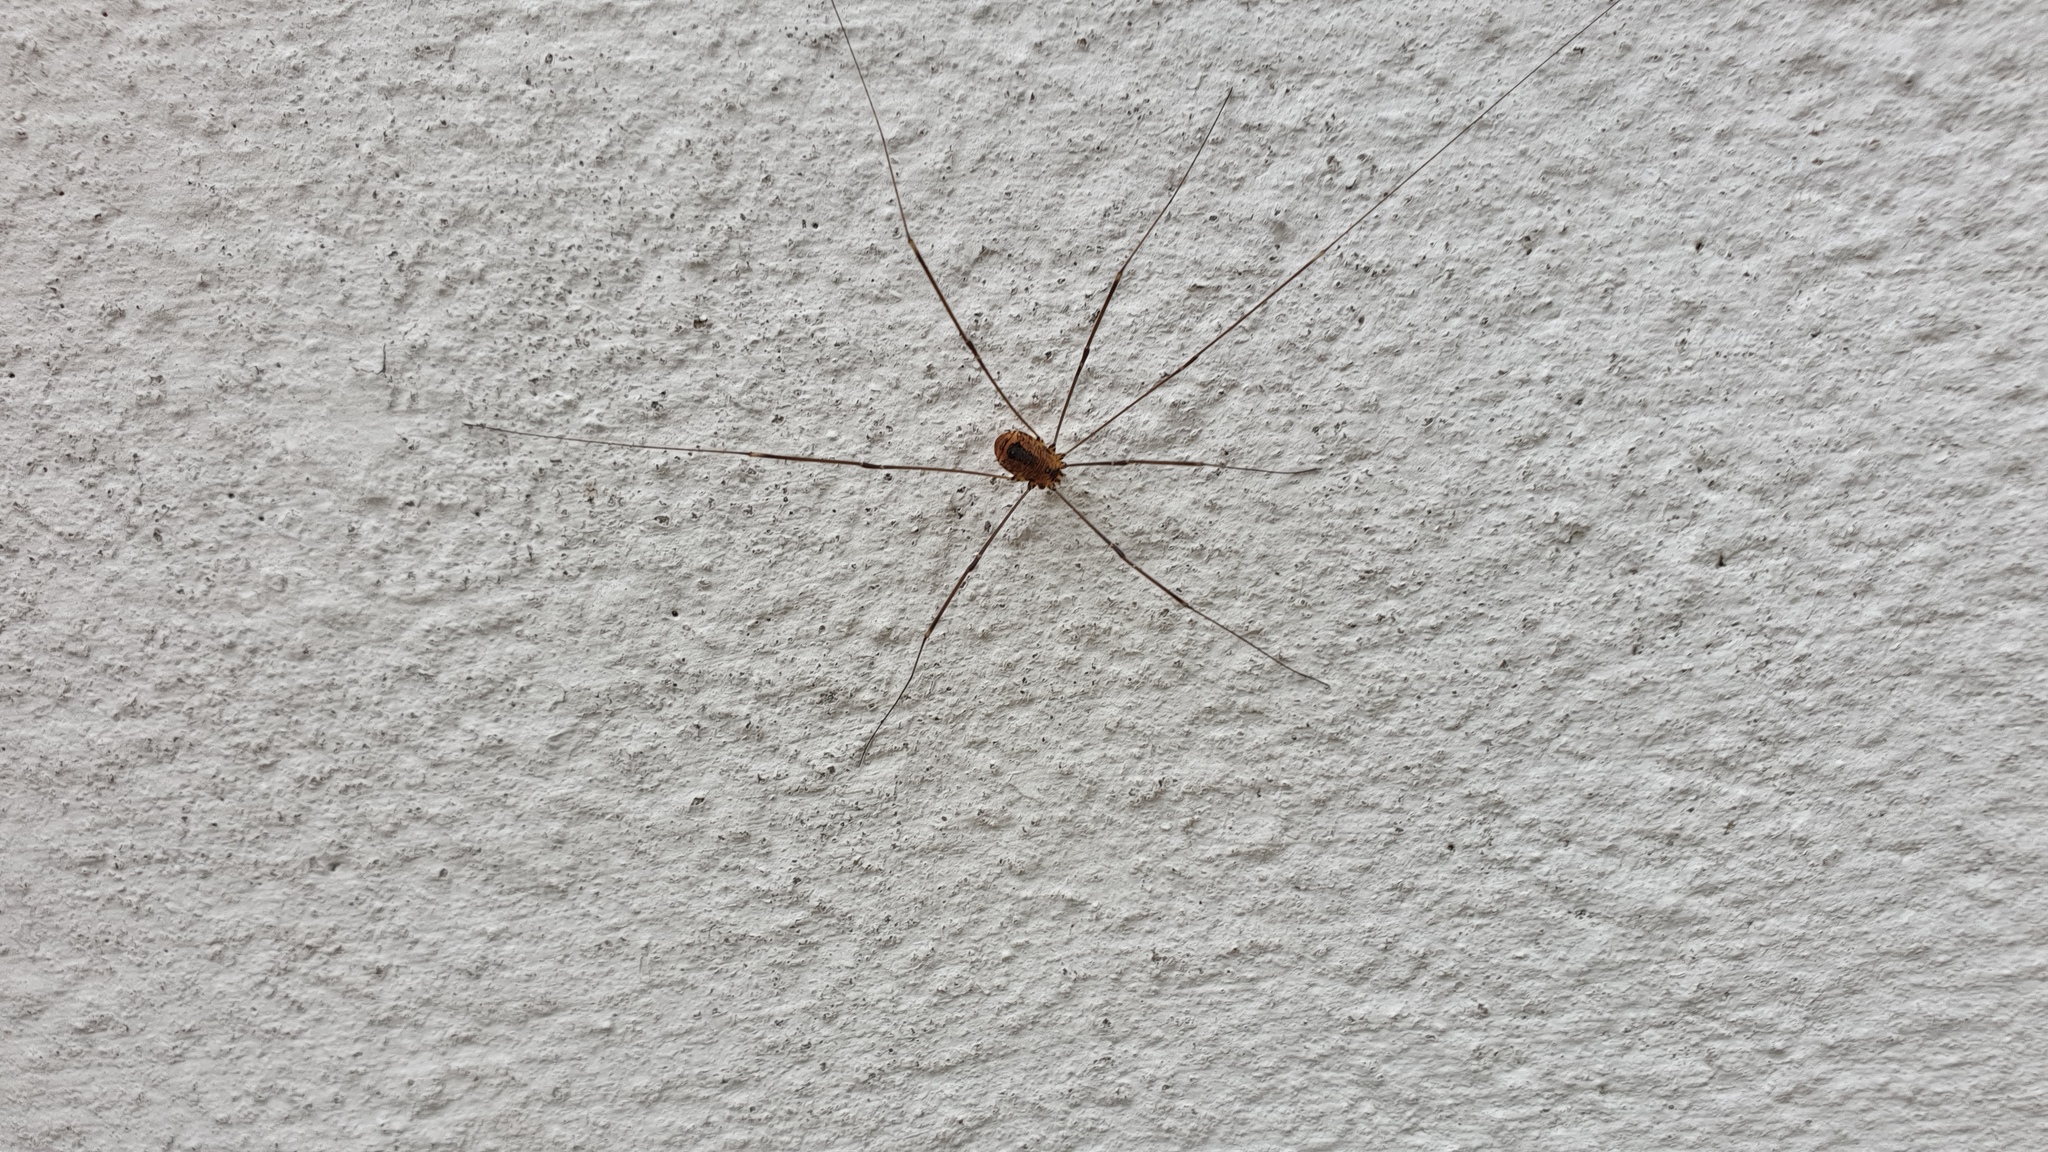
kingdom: Animalia
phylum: Arthropoda
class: Arachnida
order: Opiliones
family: Sclerosomatidae
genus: Leiobunum
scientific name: Leiobunum rotundum
